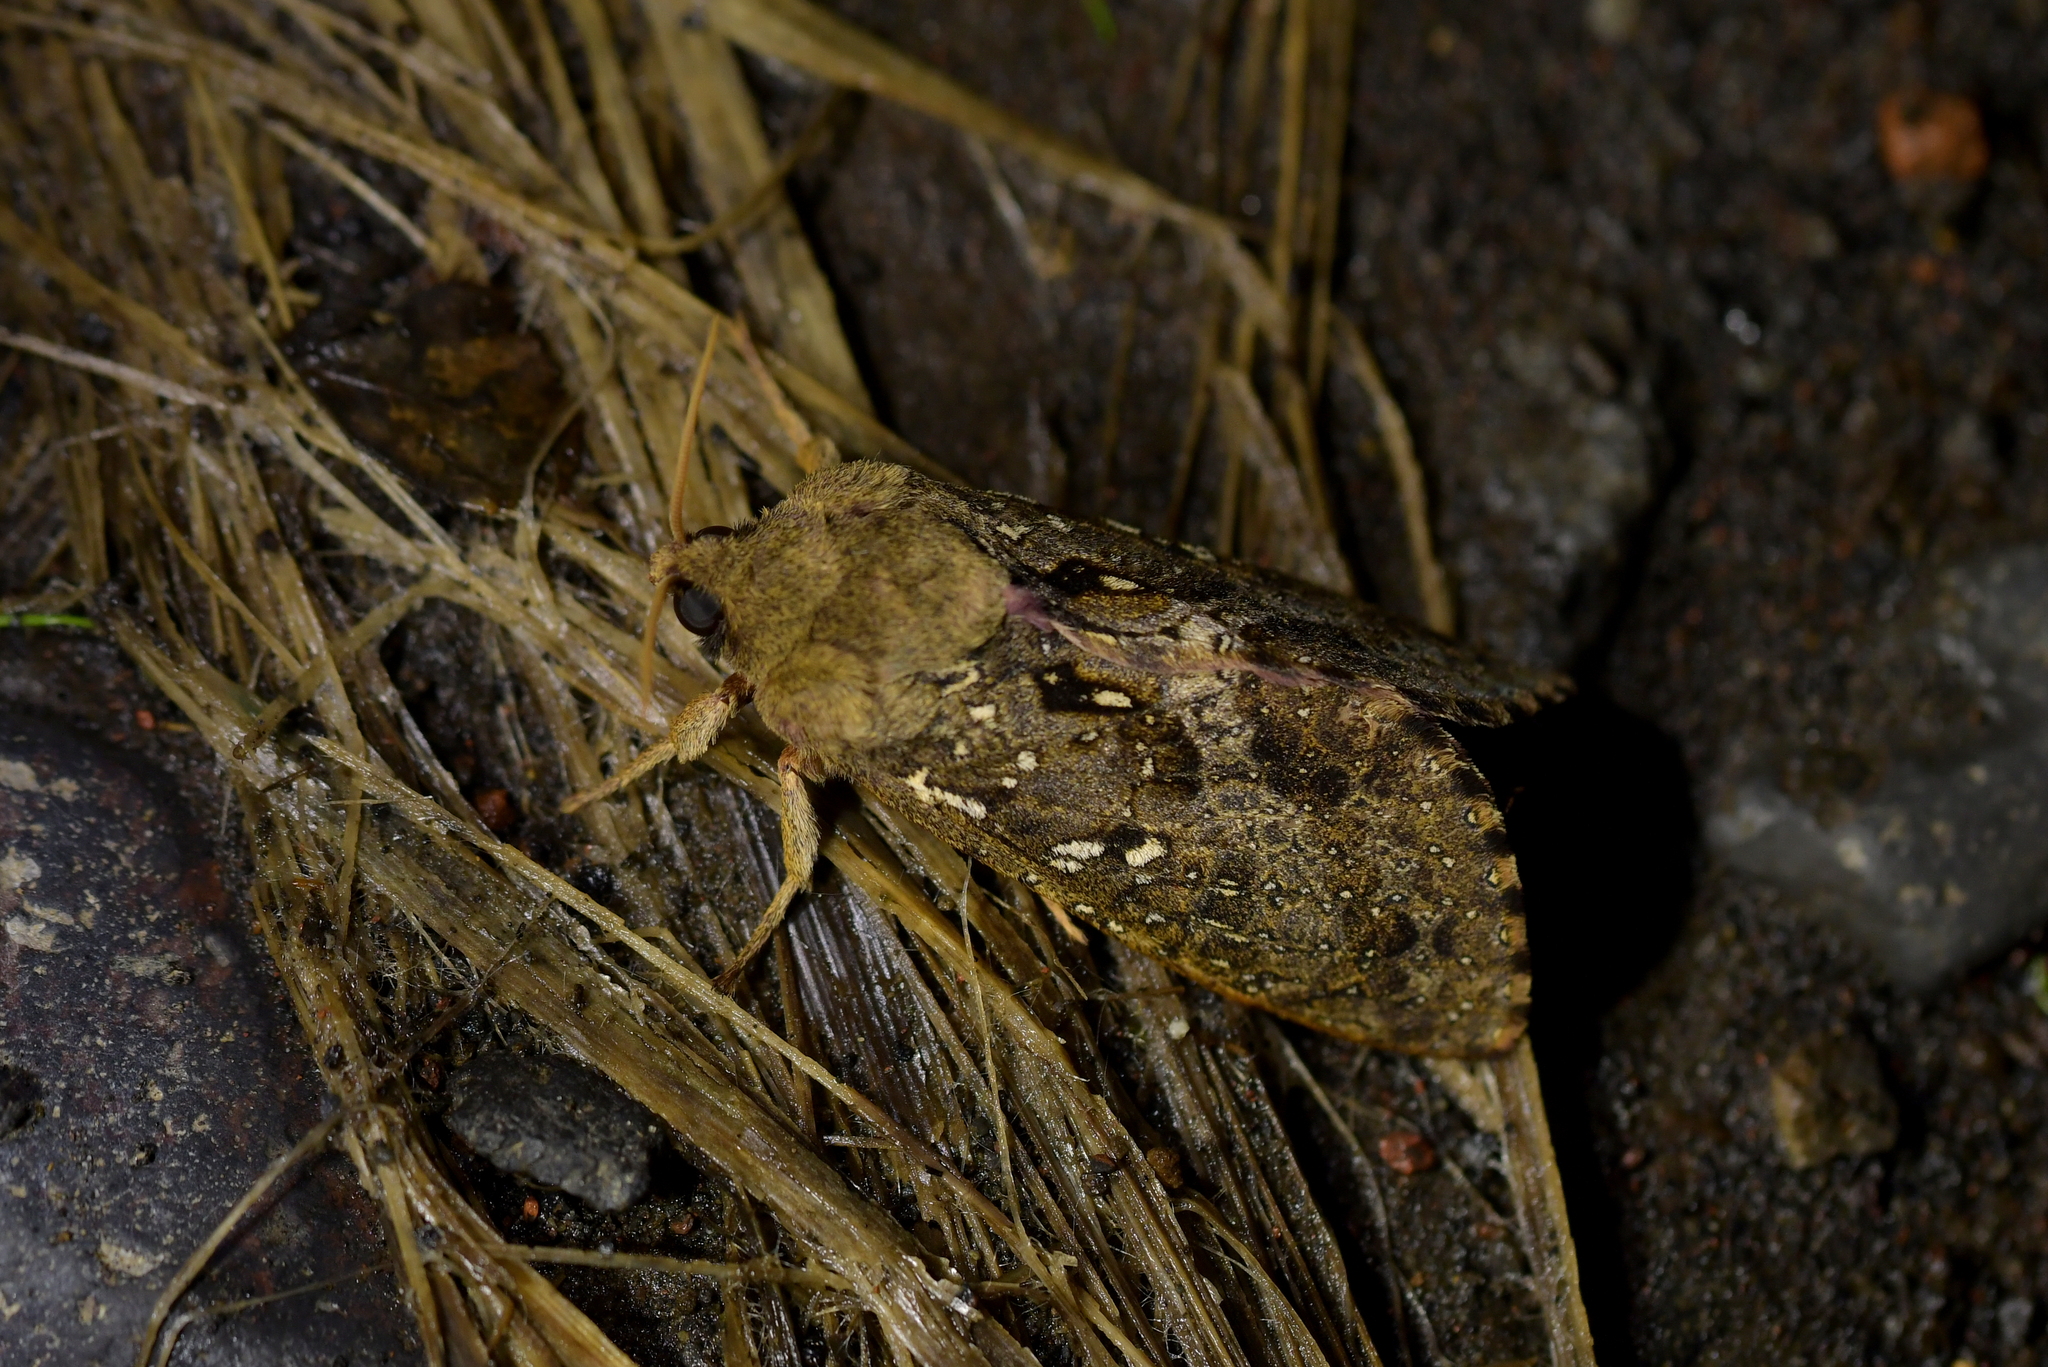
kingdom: Animalia
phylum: Arthropoda
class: Insecta
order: Lepidoptera
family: Hepialidae
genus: Dumbletonius
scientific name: Dumbletonius unimaculata
